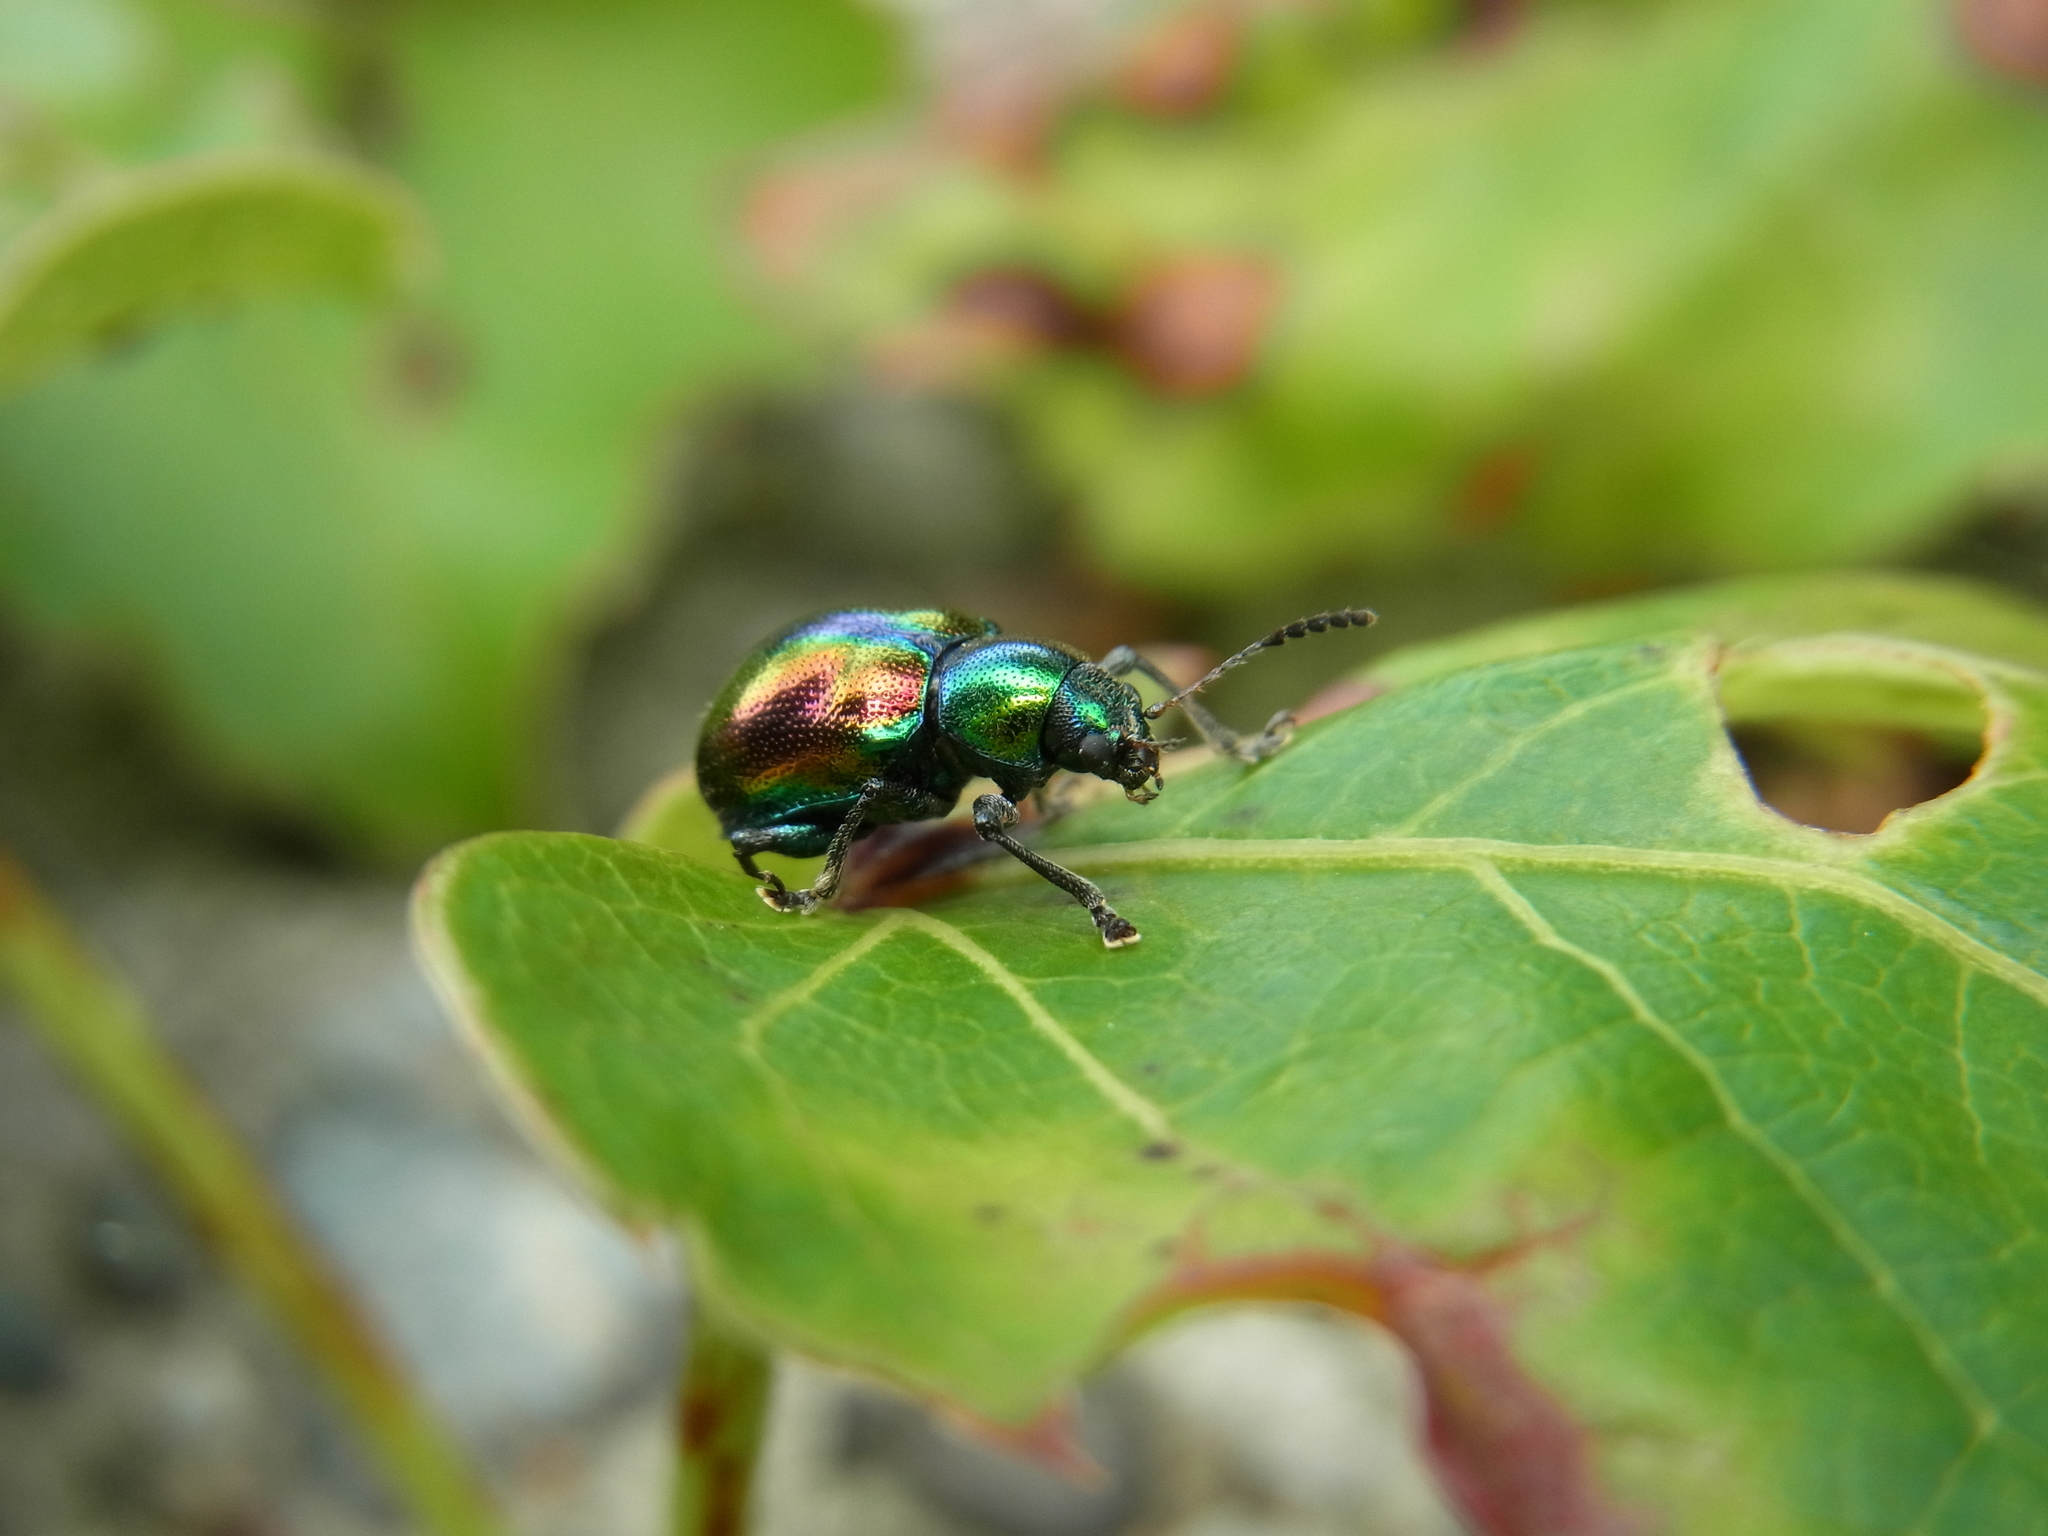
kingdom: Animalia
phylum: Arthropoda
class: Insecta
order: Coleoptera
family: Chrysomelidae
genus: Acrothinium
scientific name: Acrothinium gaschkevitchii
